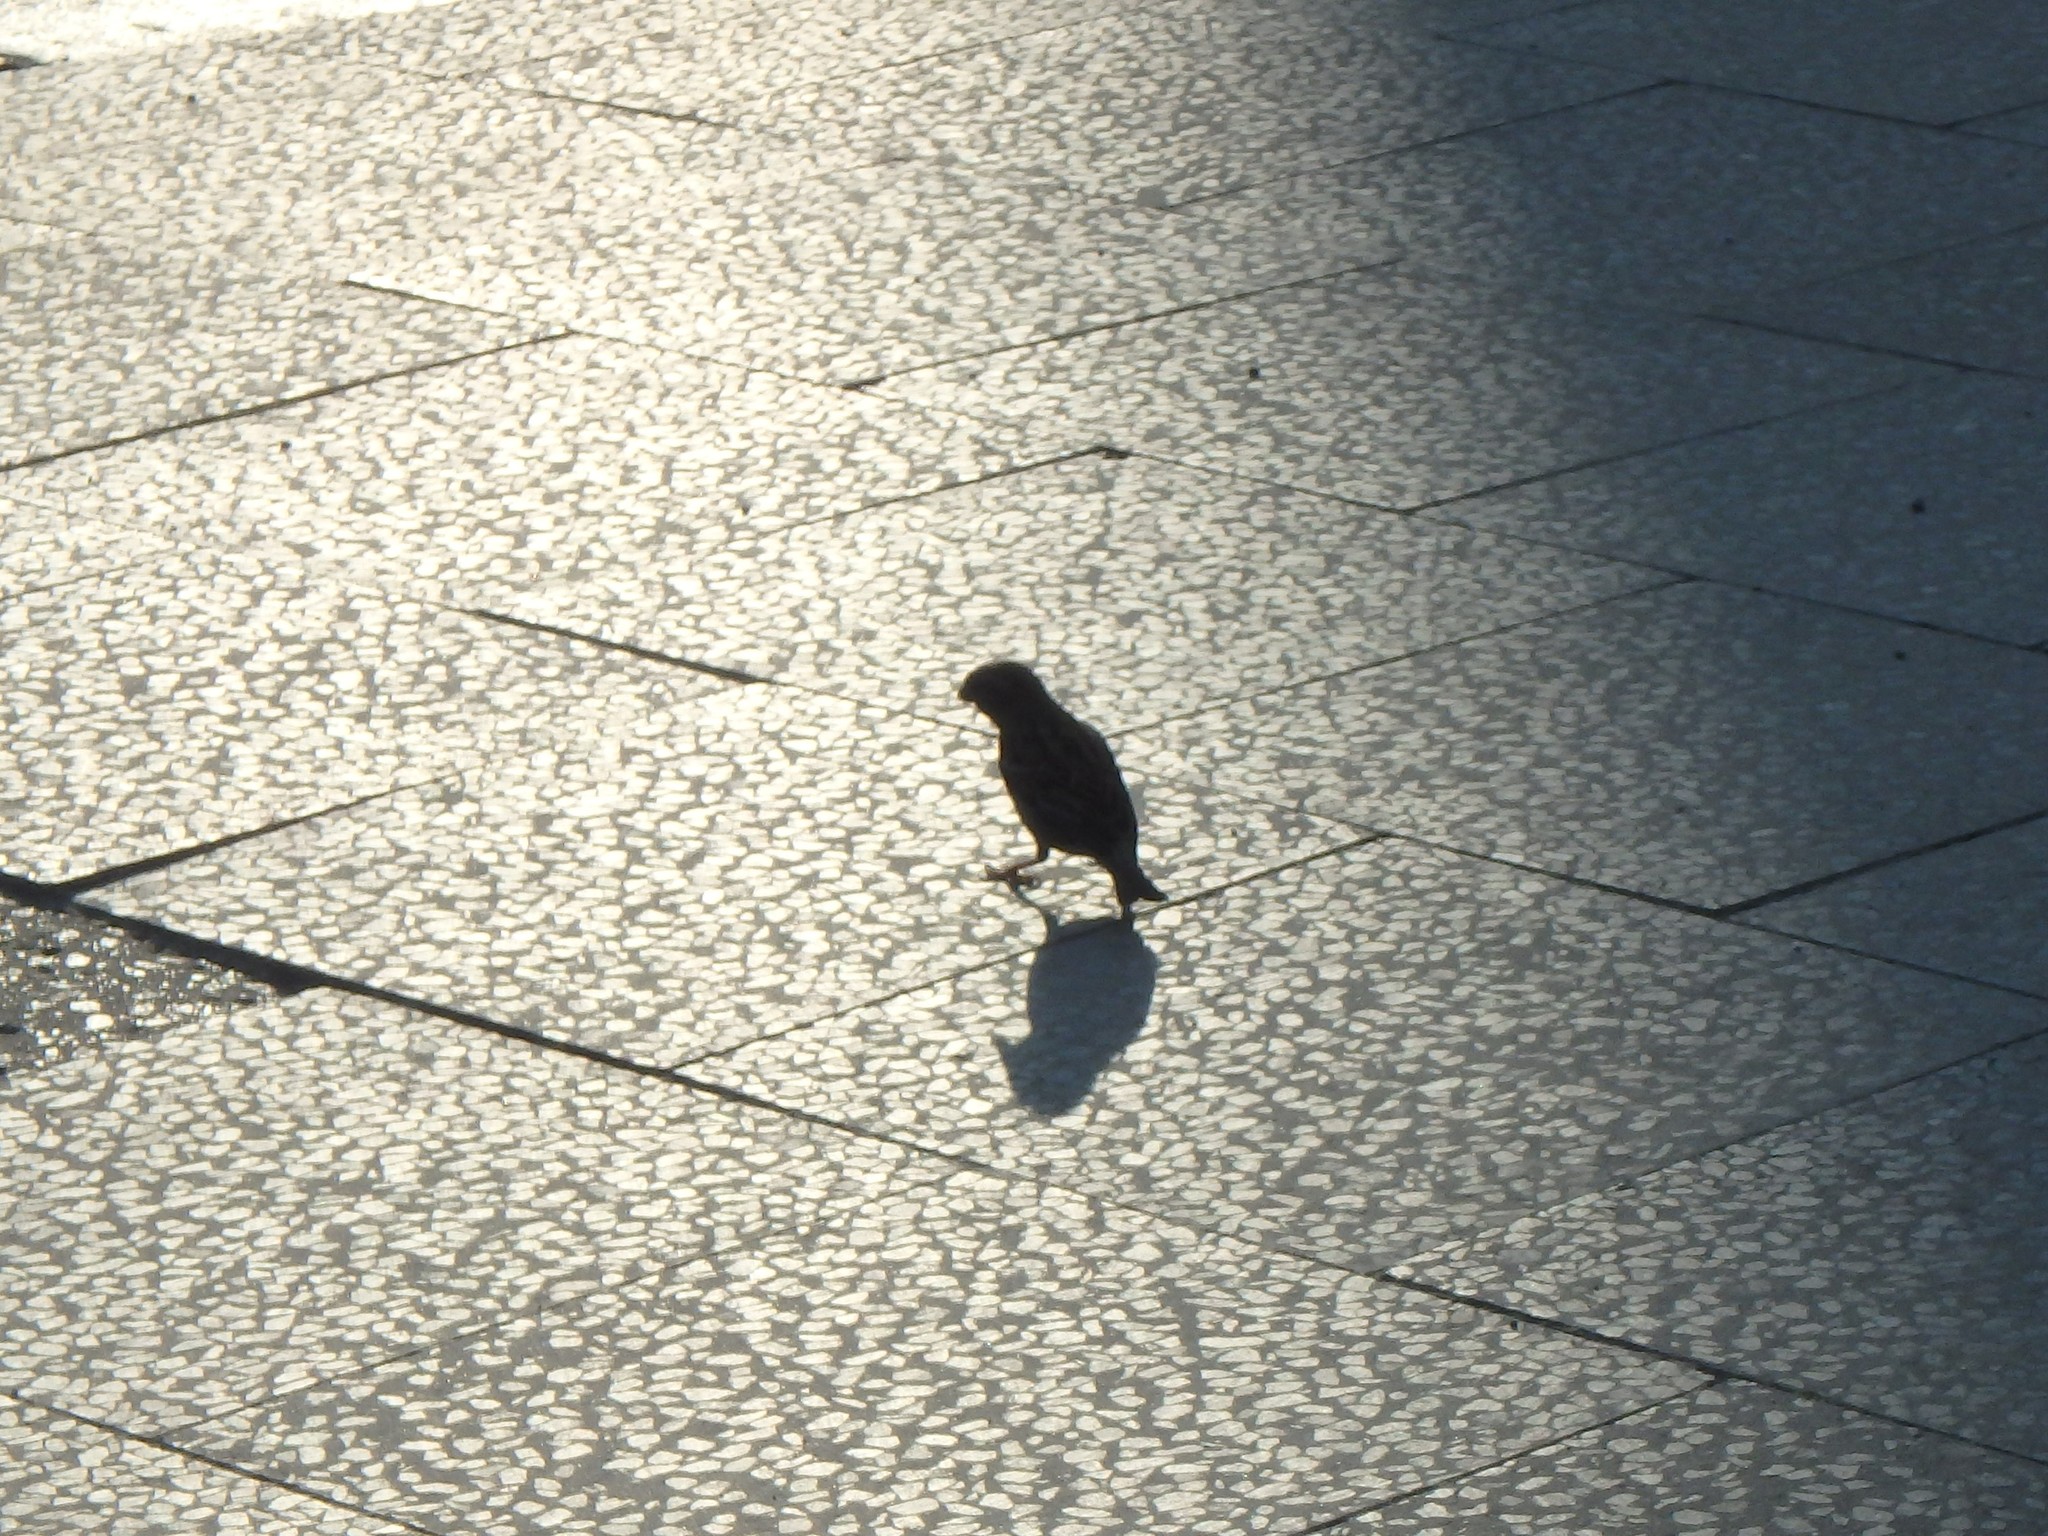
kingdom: Animalia
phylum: Chordata
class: Aves
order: Passeriformes
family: Passeridae
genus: Passer
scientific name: Passer domesticus
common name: House sparrow
